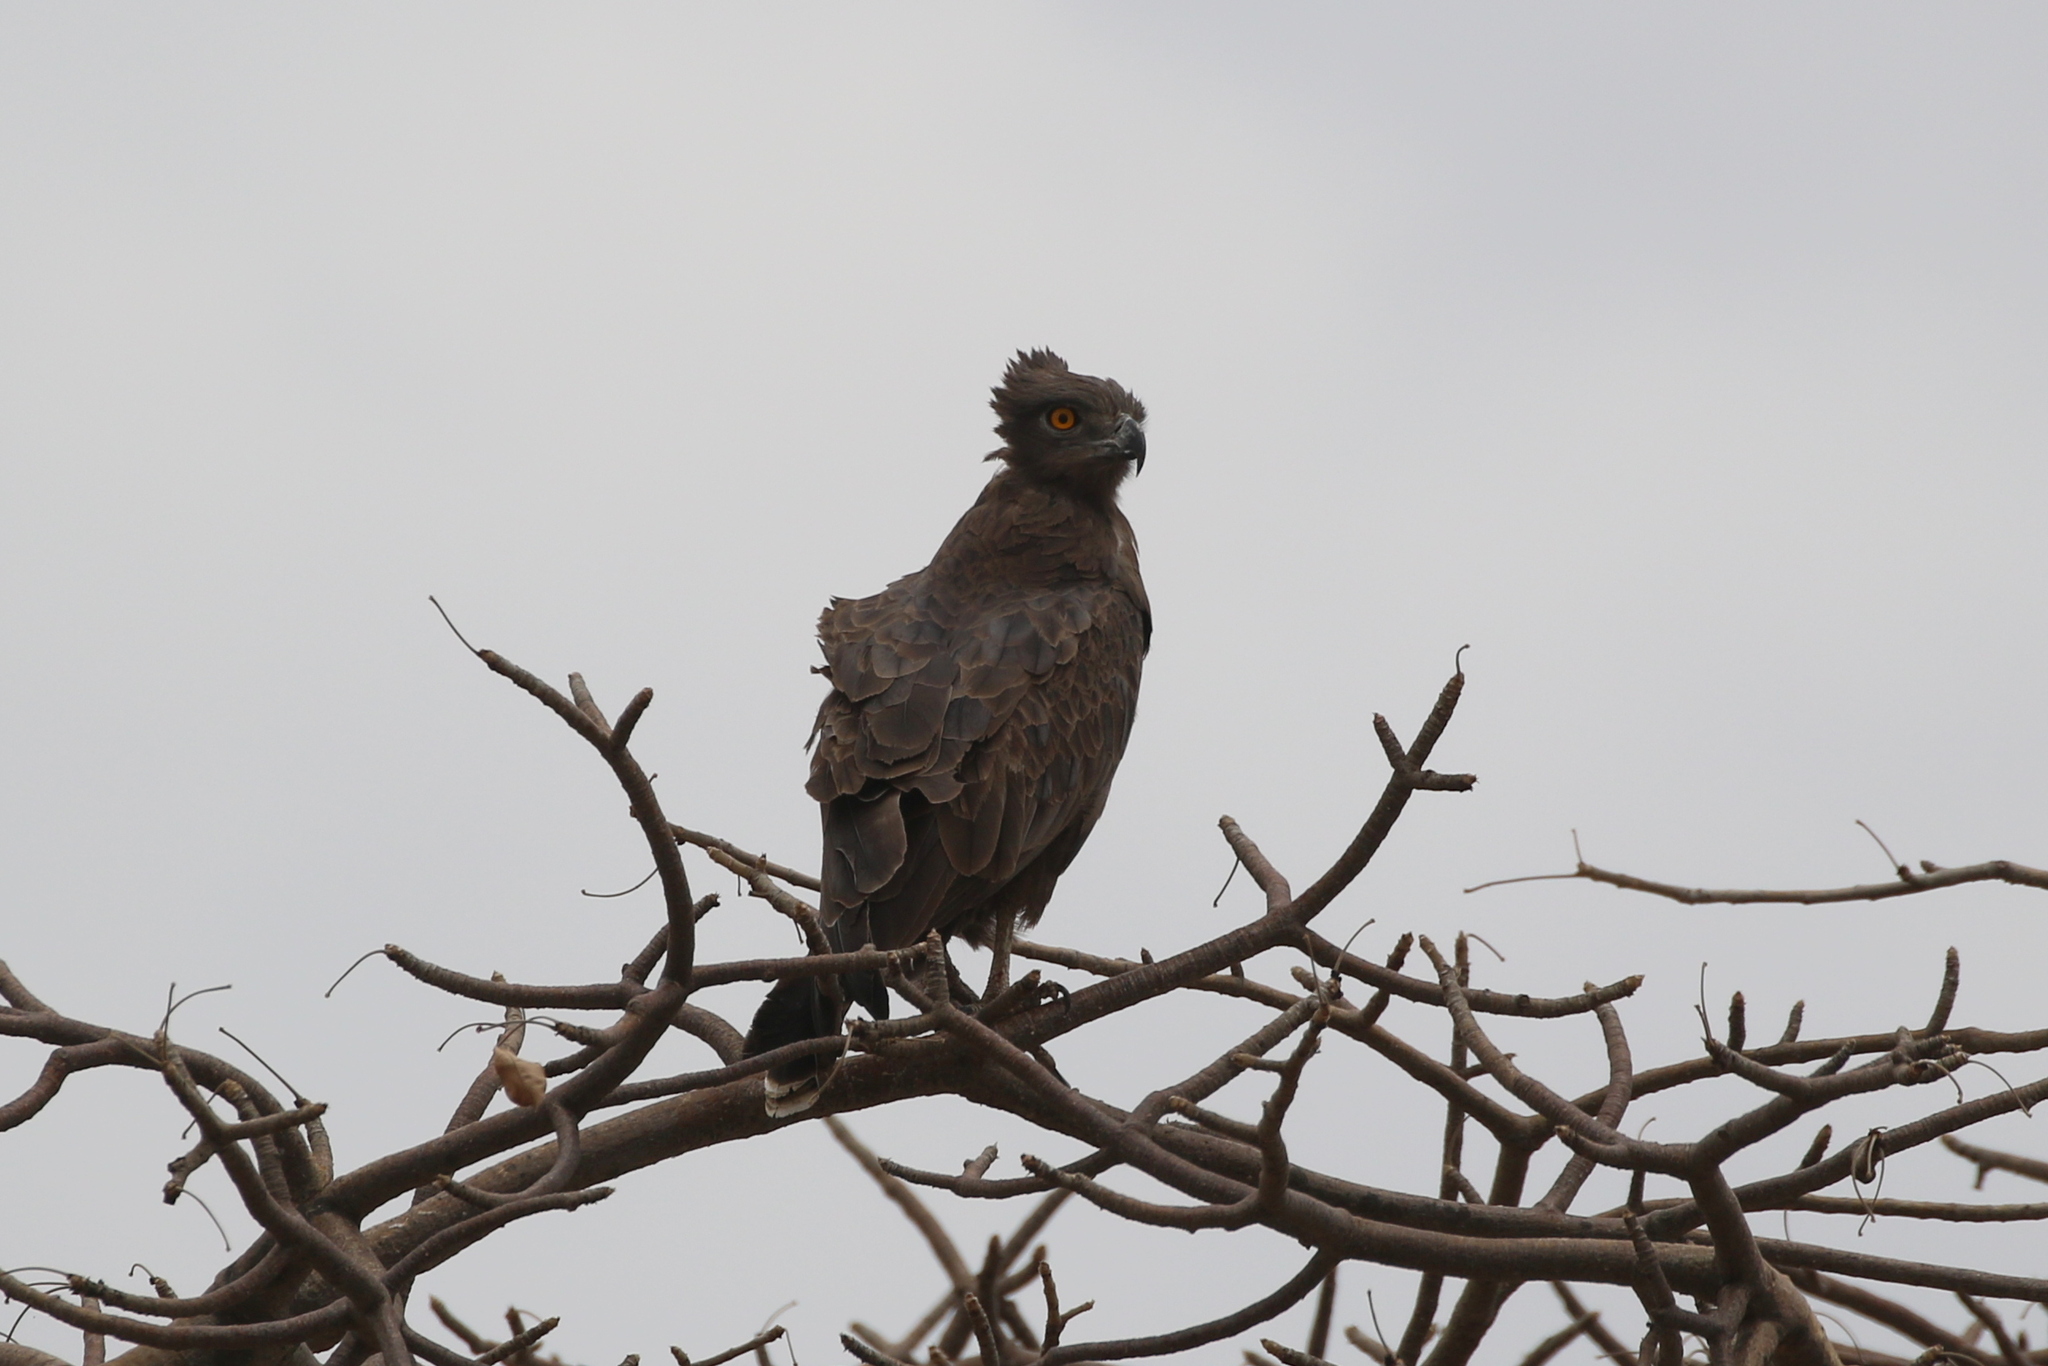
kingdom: Animalia
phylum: Chordata
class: Aves
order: Accipitriformes
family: Accipitridae
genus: Circaetus
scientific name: Circaetus cinereus
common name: Brown snake eagle
